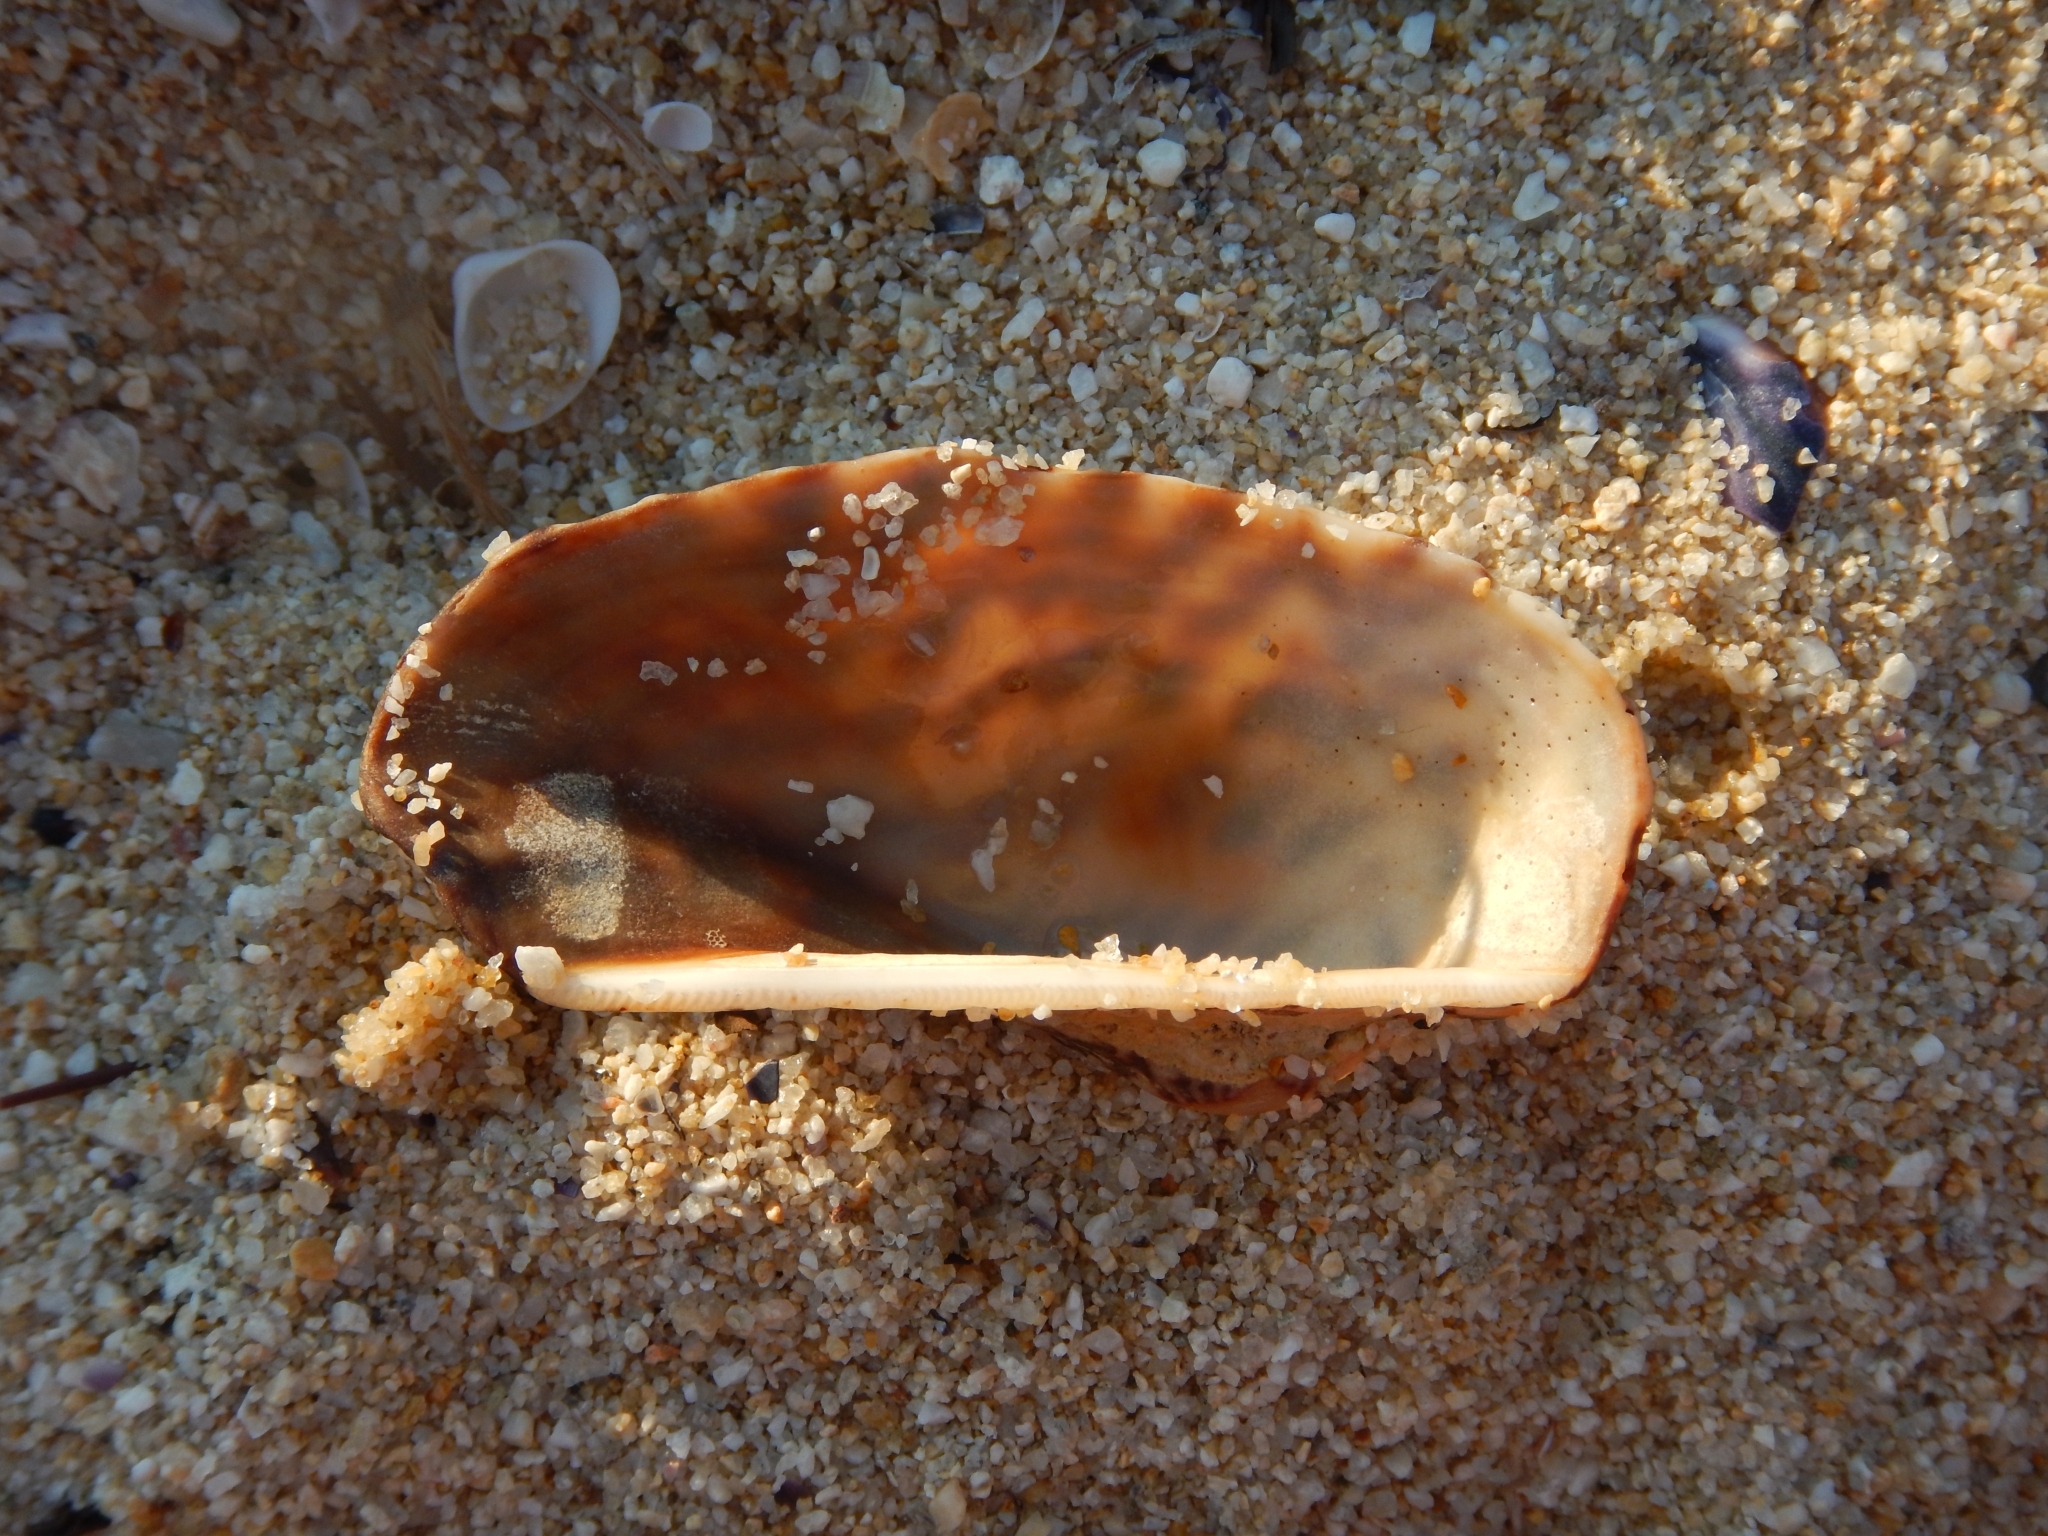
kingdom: Animalia
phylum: Mollusca
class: Bivalvia
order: Arcida
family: Arcidae
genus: Arca
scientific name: Arca noae
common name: Noah's arch
